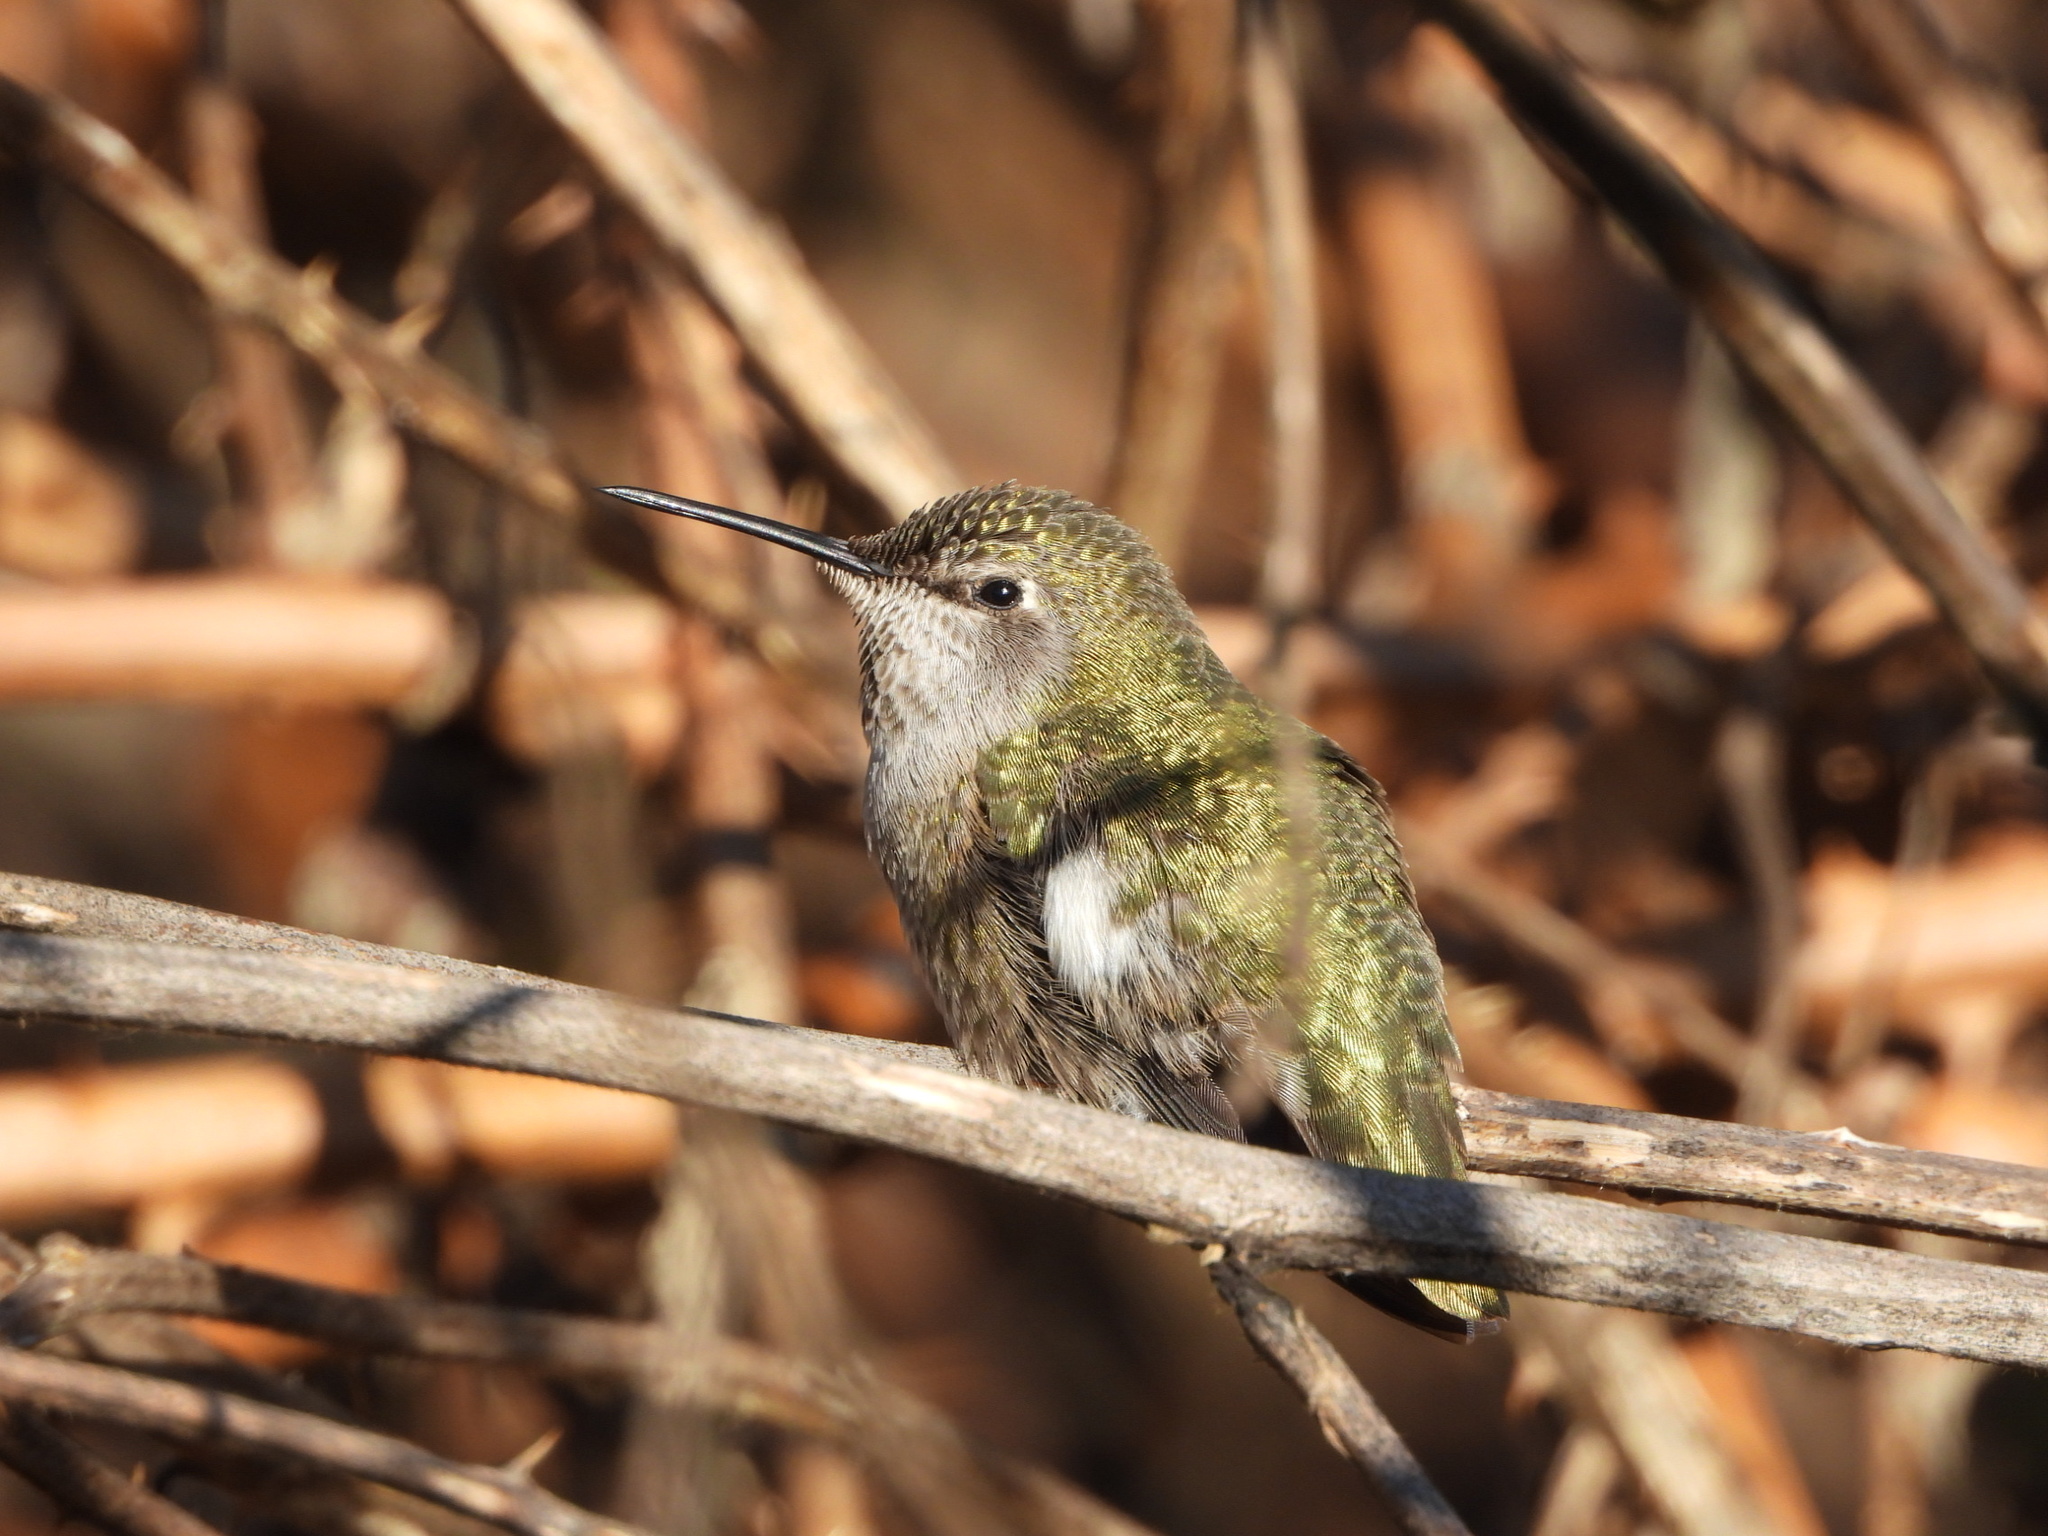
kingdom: Animalia
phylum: Chordata
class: Aves
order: Apodiformes
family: Trochilidae
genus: Calypte
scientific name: Calypte anna
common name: Anna's hummingbird
